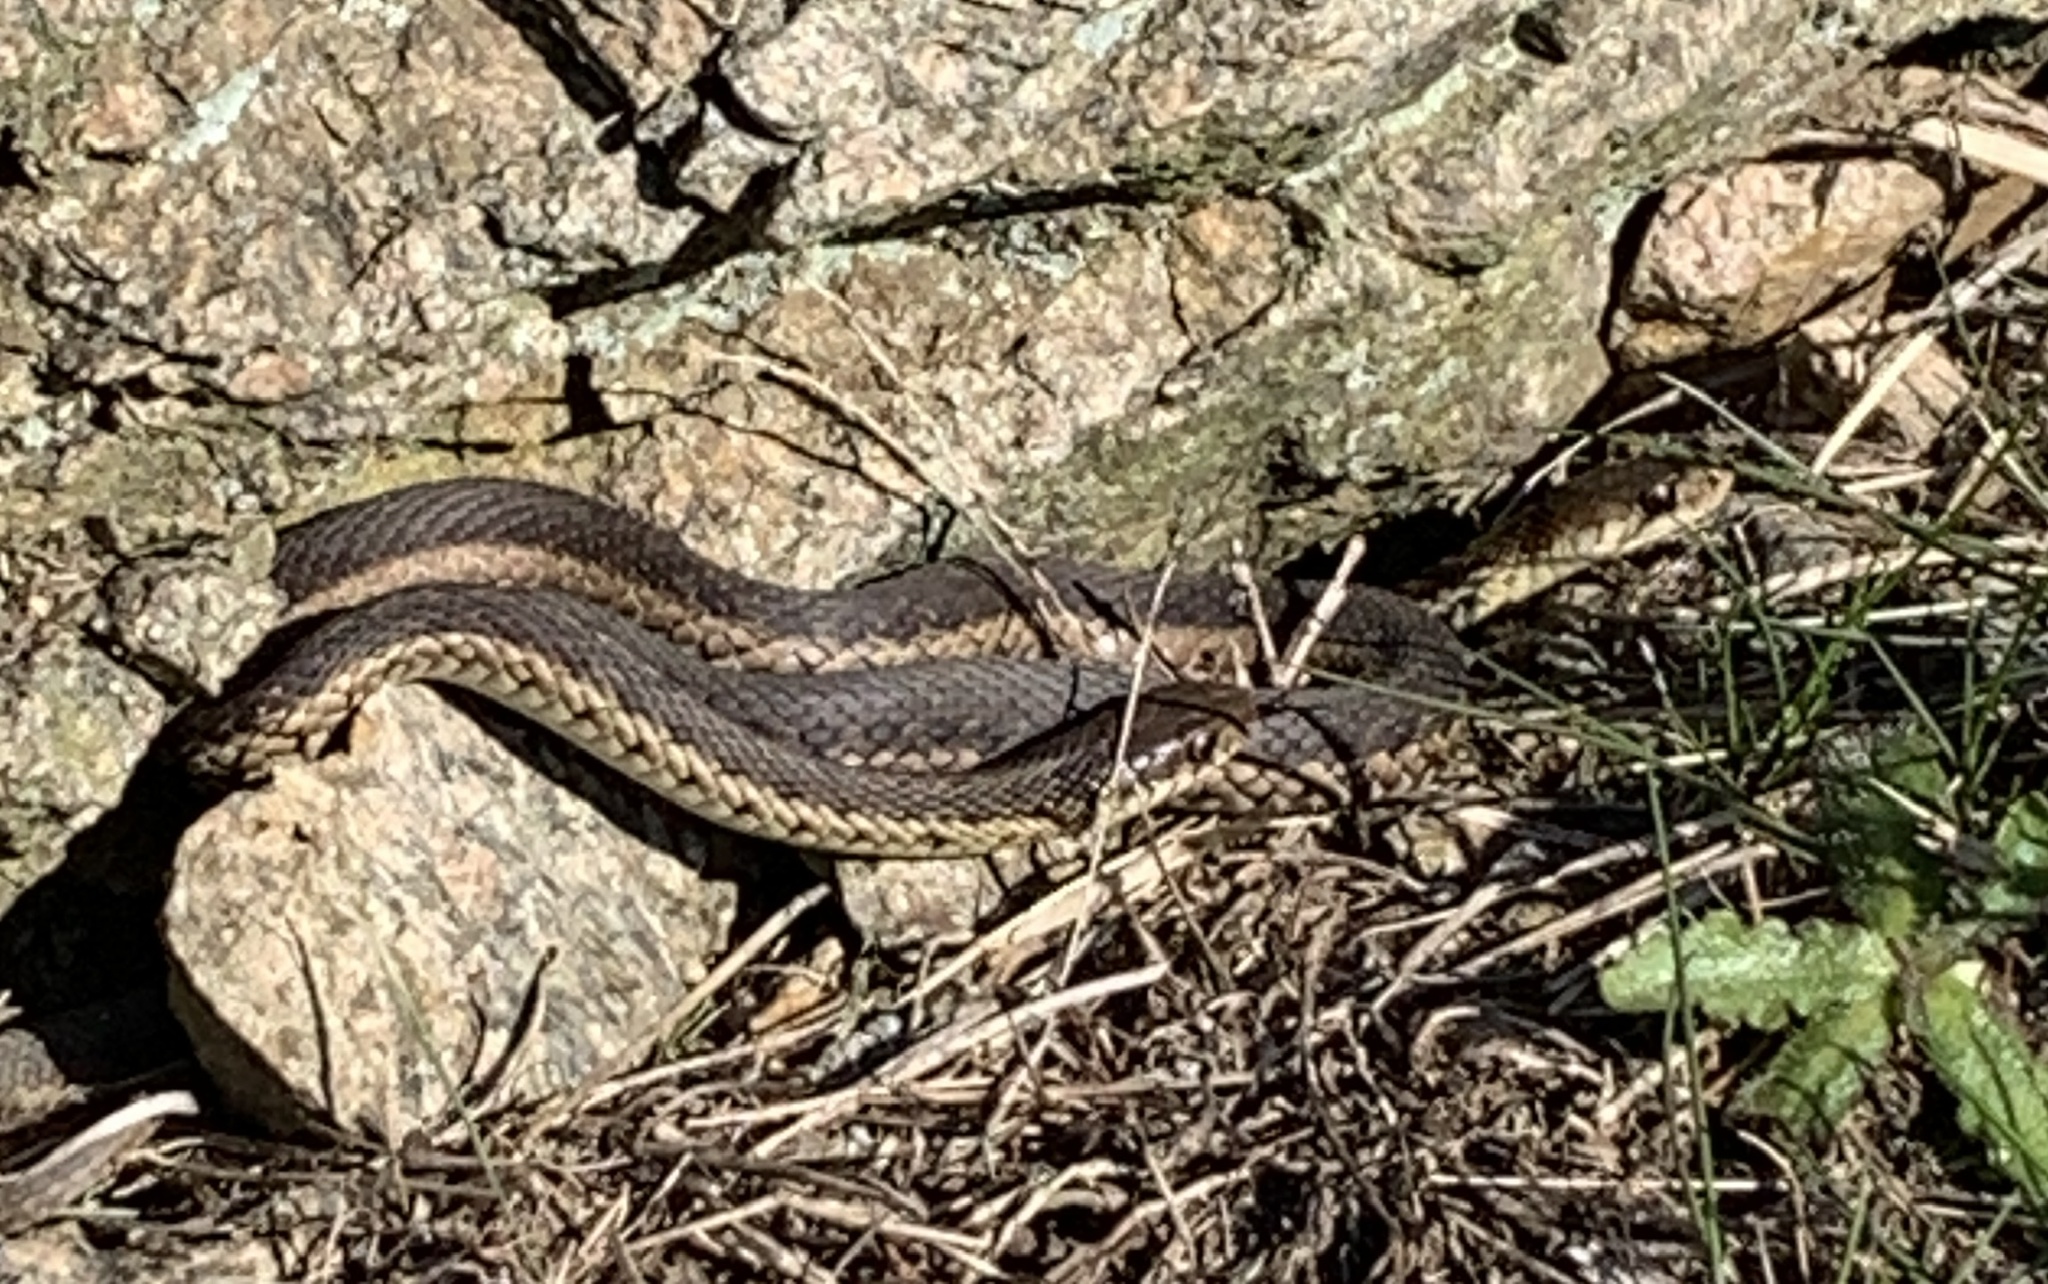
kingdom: Animalia
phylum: Chordata
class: Squamata
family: Colubridae
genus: Thamnophis
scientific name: Thamnophis sirtalis
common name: Common garter snake
